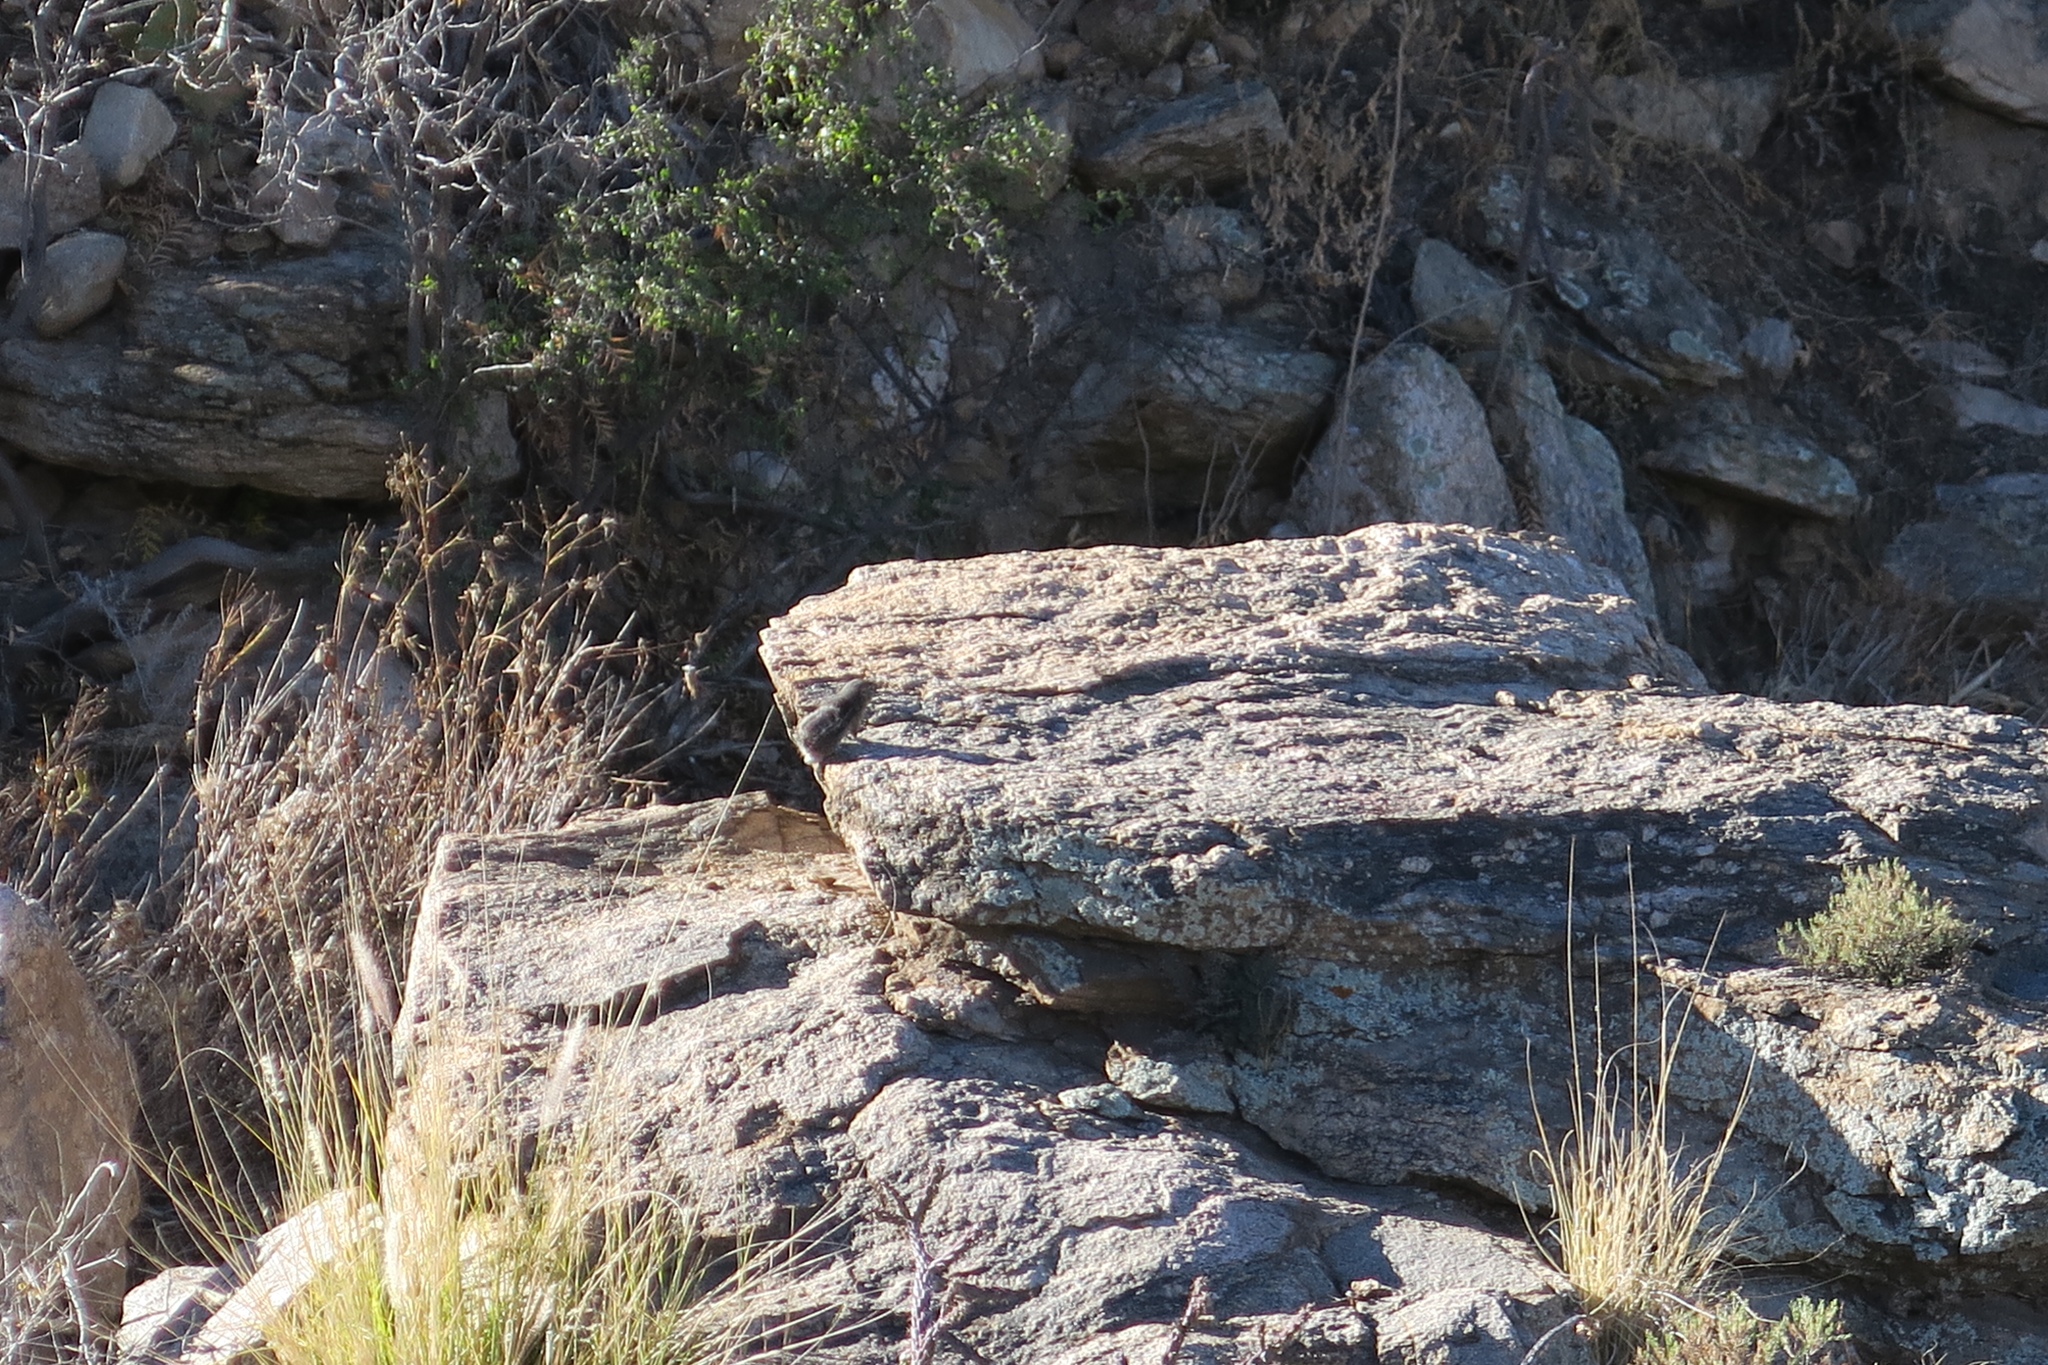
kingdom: Animalia
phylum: Chordata
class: Mammalia
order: Rodentia
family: Sciuridae
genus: Ammospermophilus
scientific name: Ammospermophilus harrisii
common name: Harris's antelope squirrel
